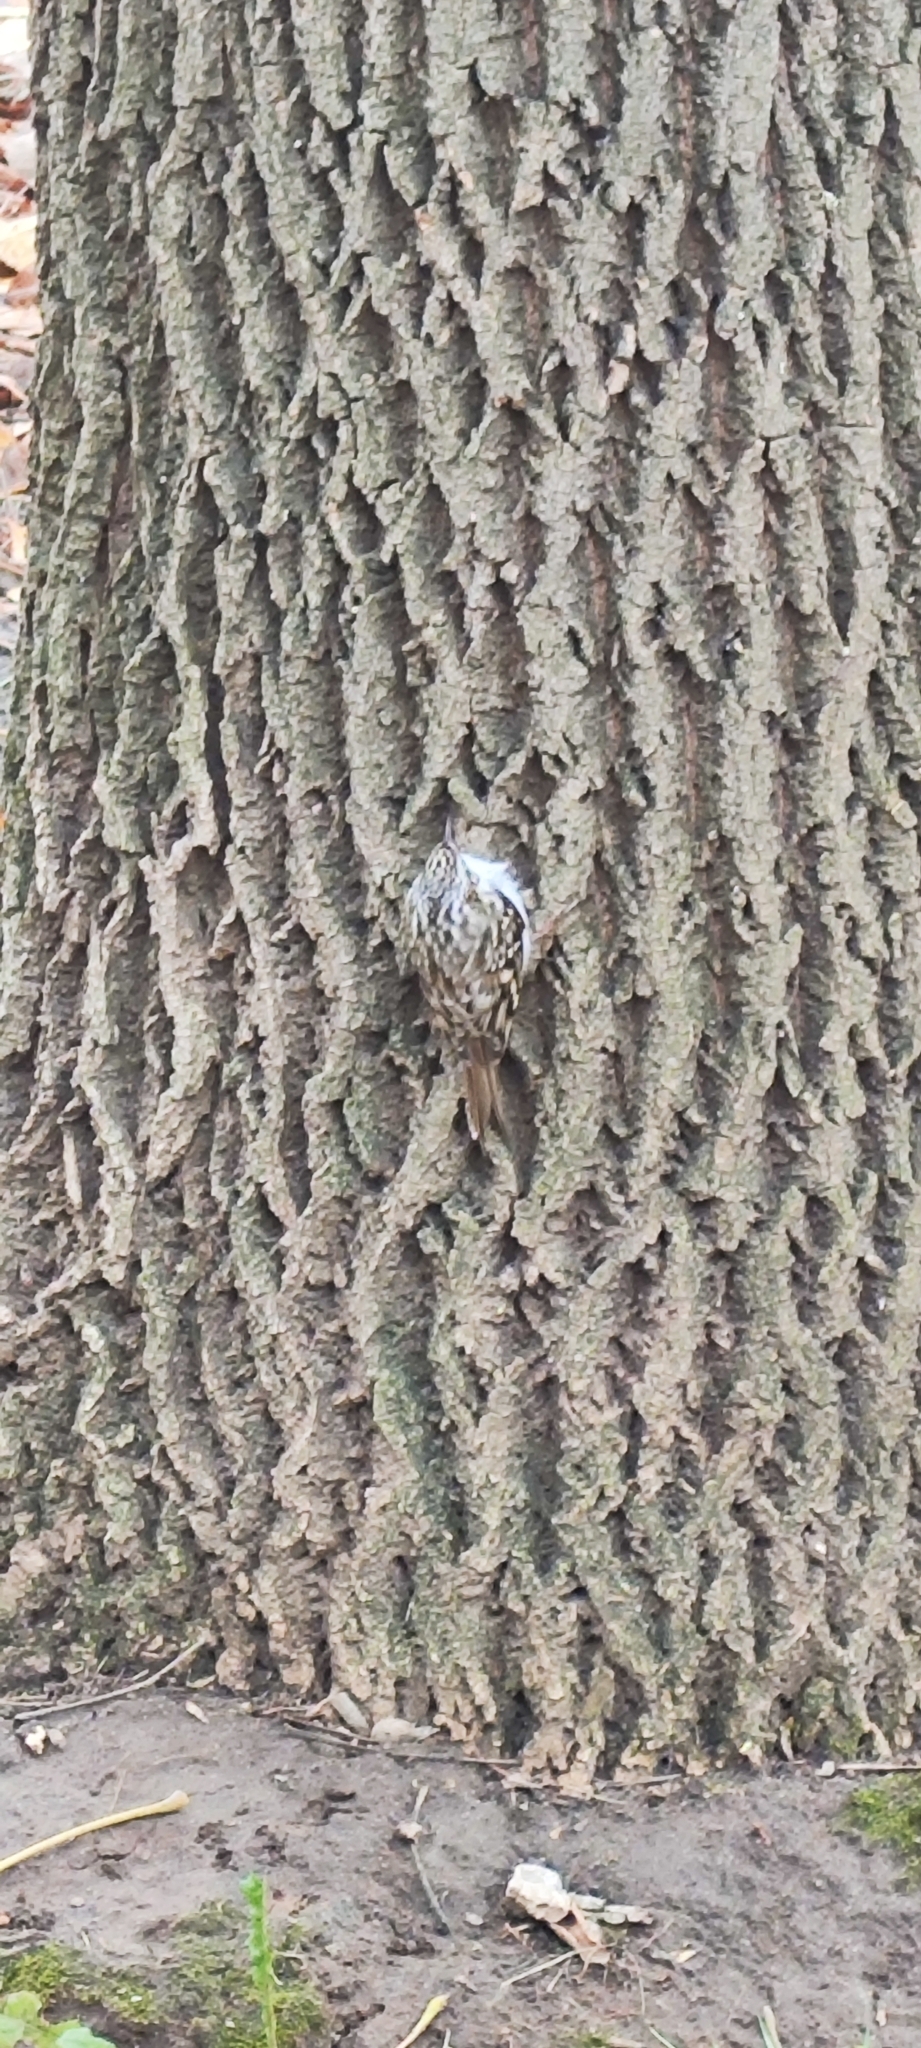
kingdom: Animalia
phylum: Chordata
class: Aves
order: Passeriformes
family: Certhiidae
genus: Certhia
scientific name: Certhia familiaris
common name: Eurasian treecreeper
